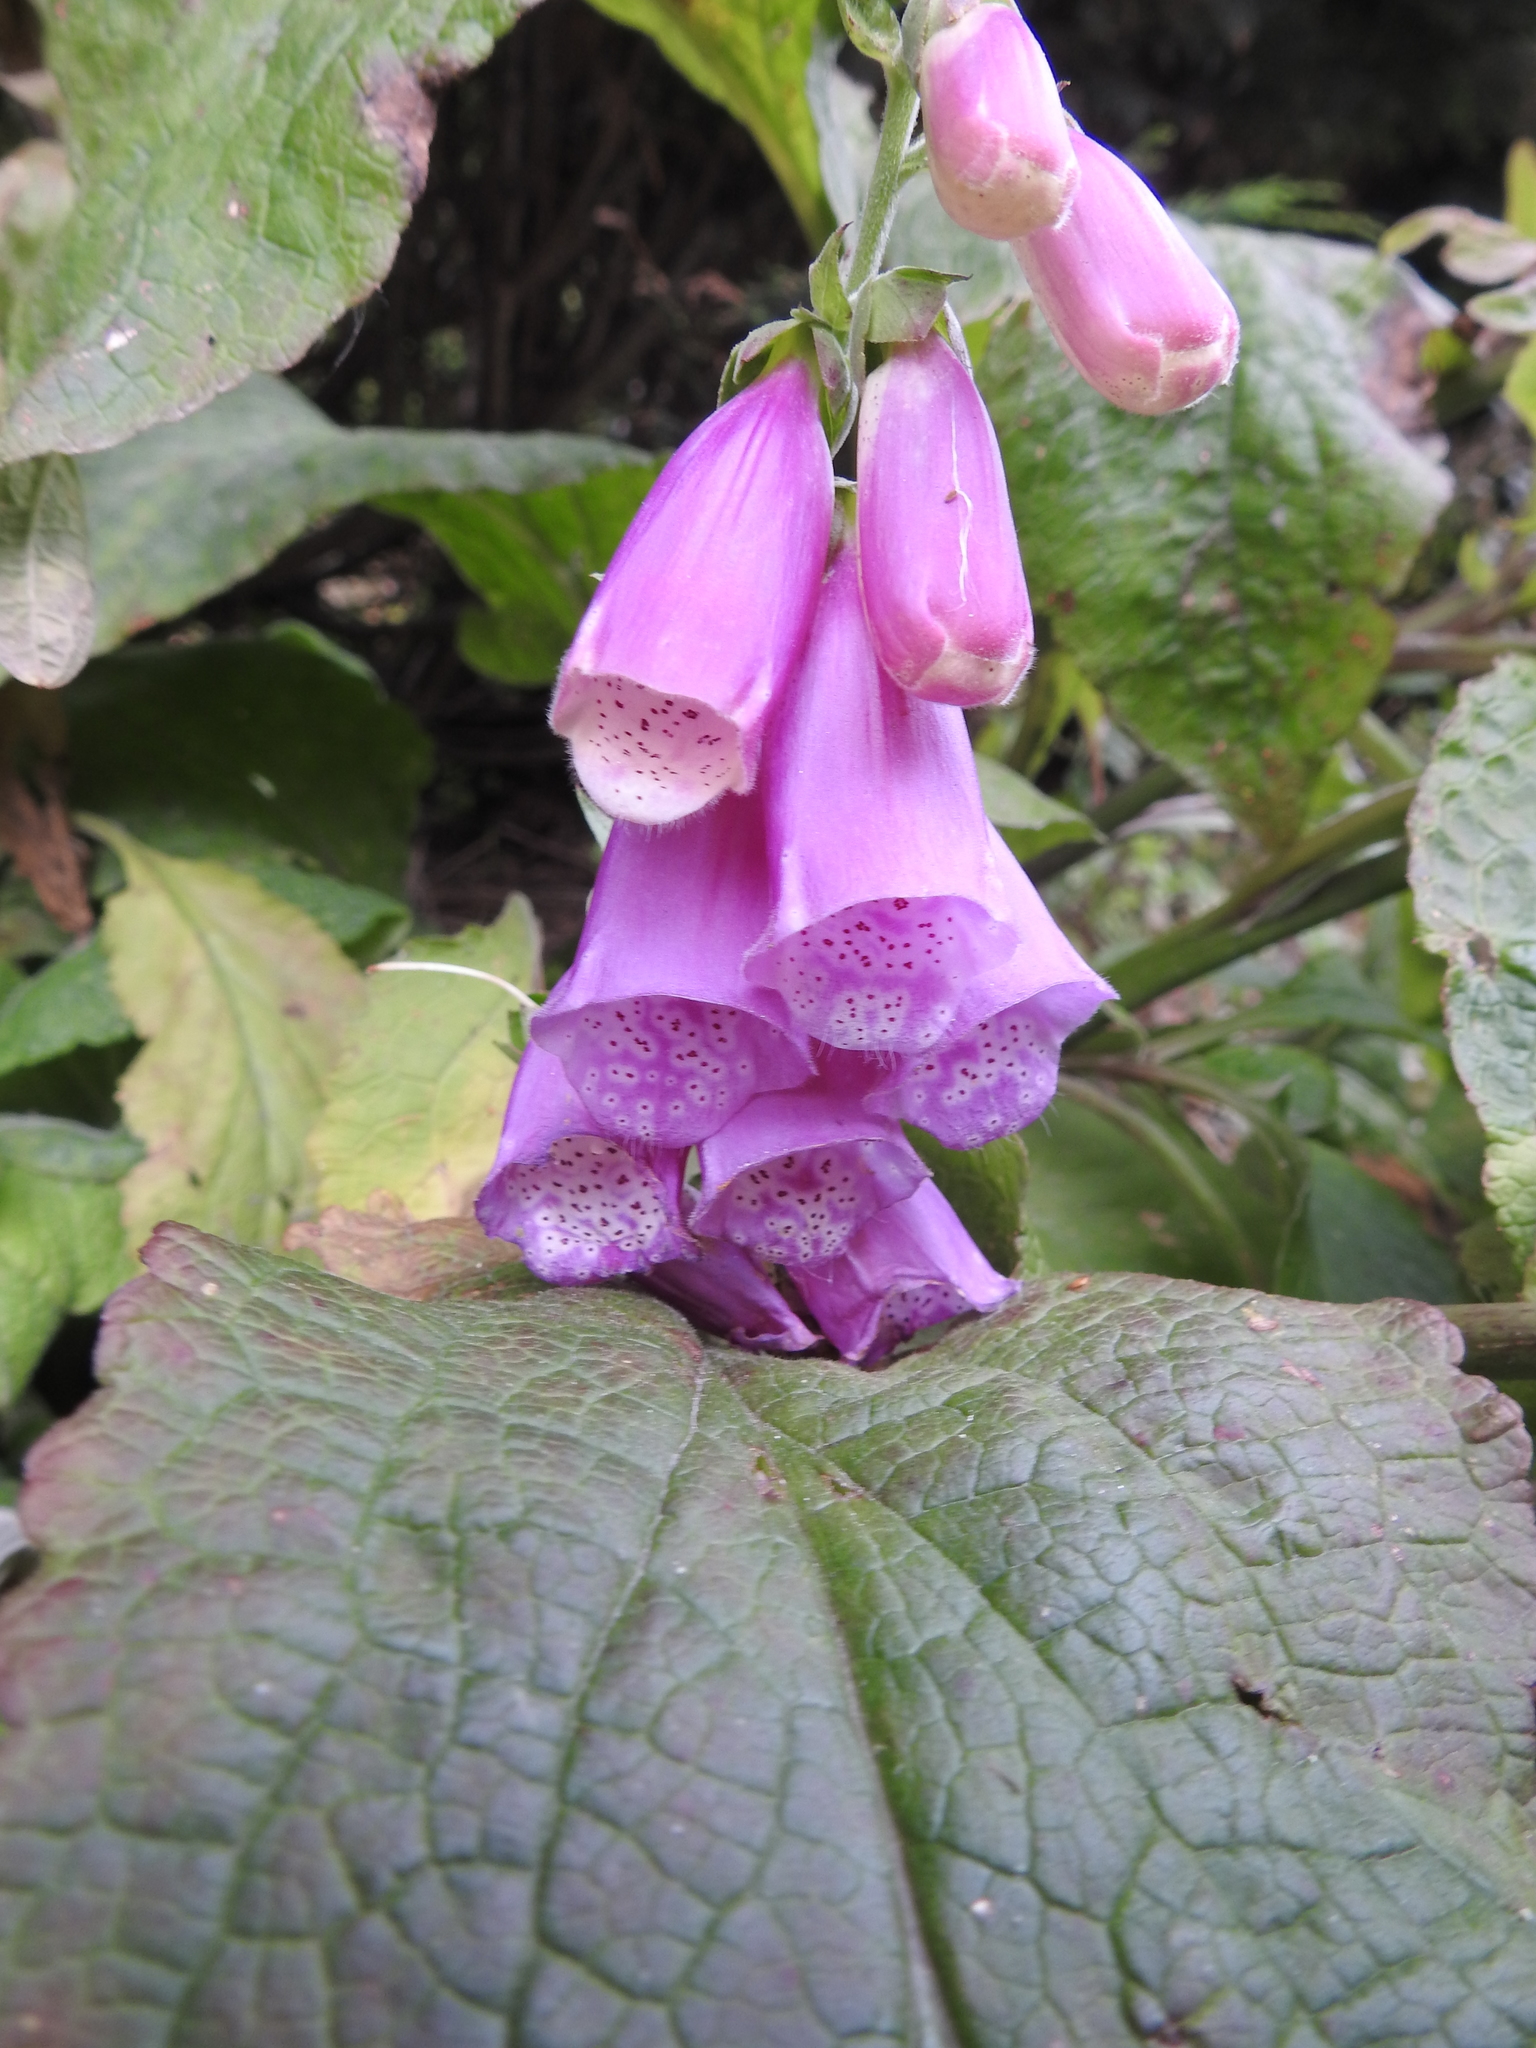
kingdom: Plantae
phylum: Tracheophyta
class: Magnoliopsida
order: Lamiales
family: Plantaginaceae
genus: Digitalis
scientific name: Digitalis purpurea
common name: Foxglove
